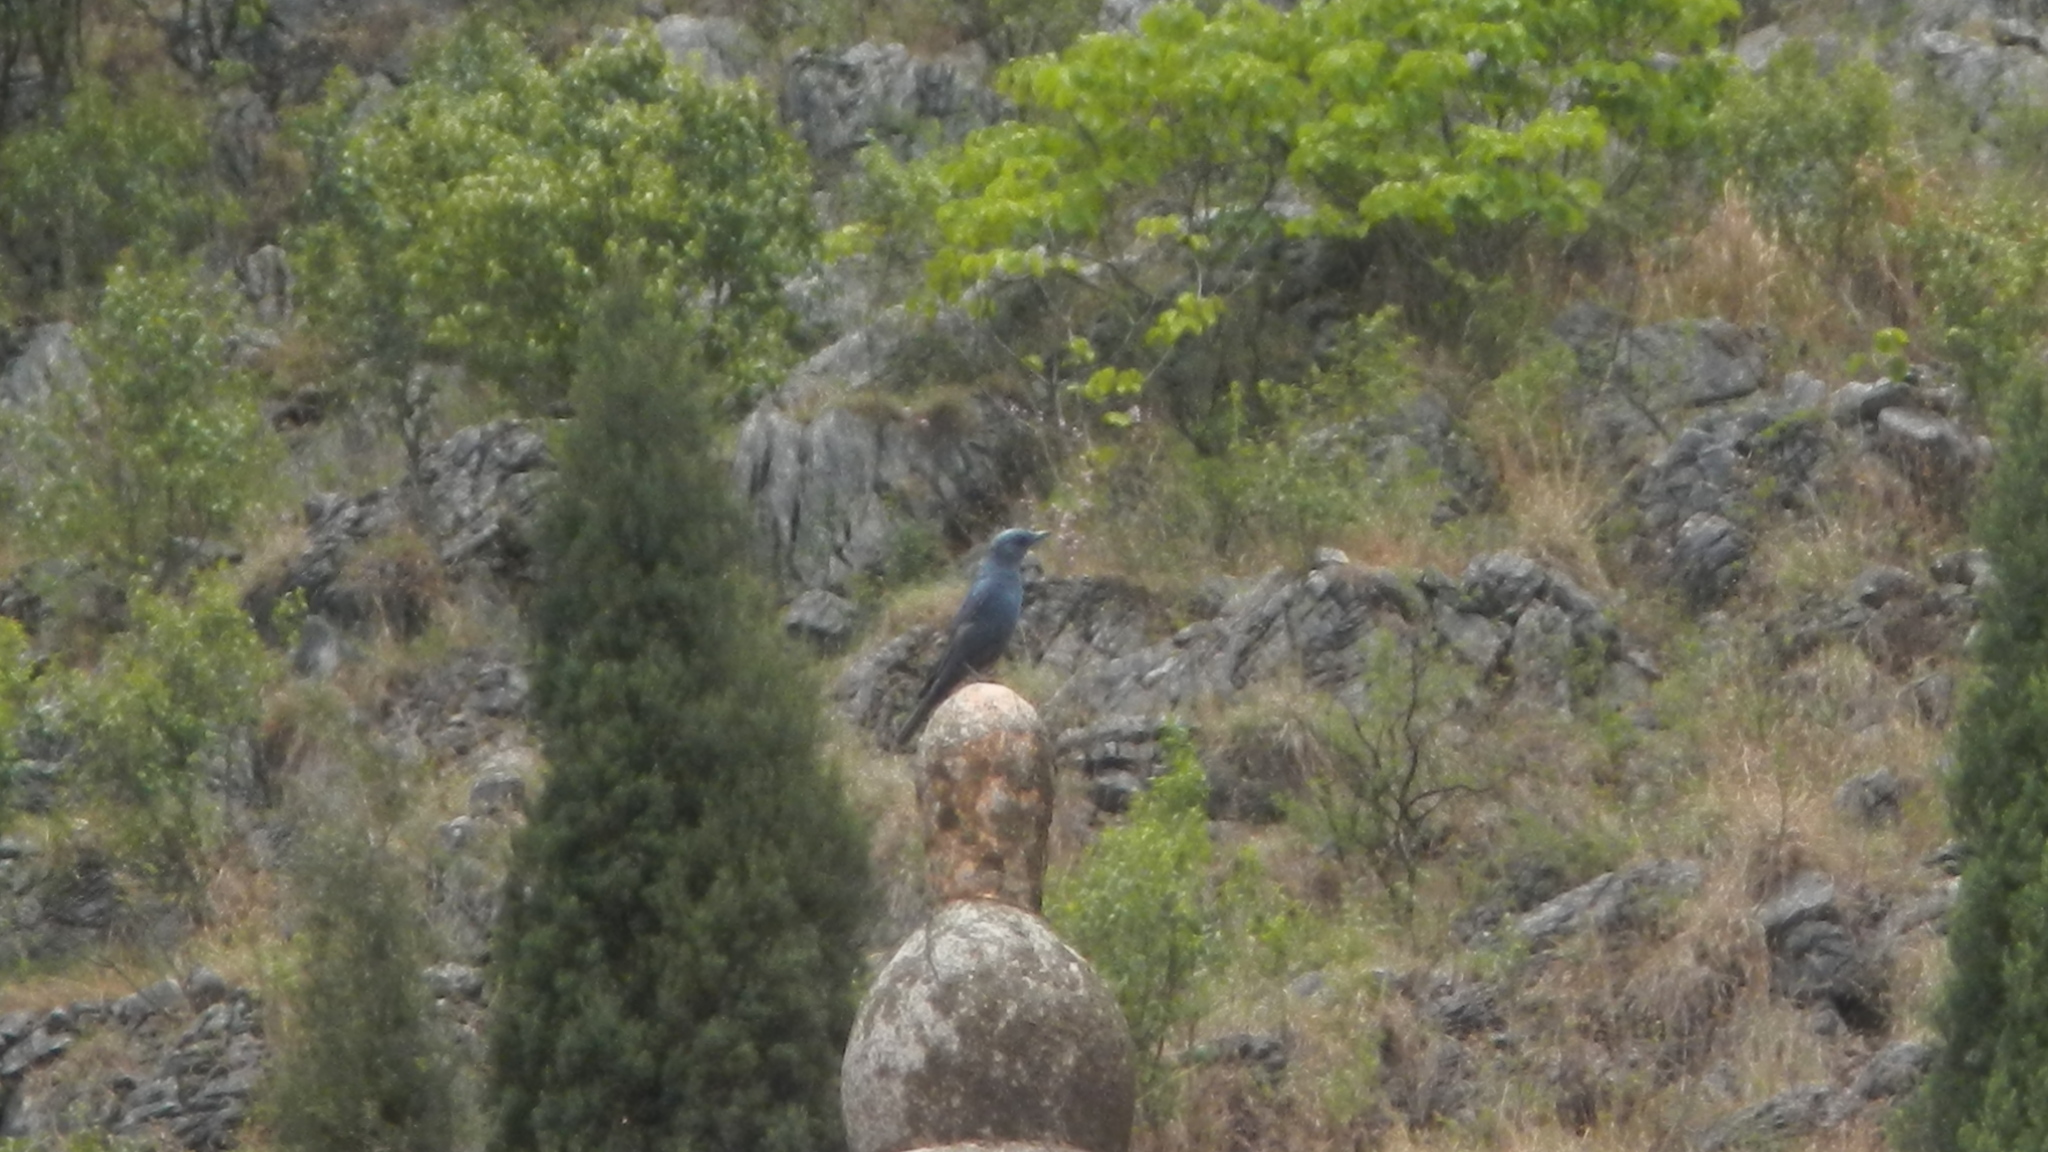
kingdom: Animalia
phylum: Chordata
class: Aves
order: Passeriformes
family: Muscicapidae
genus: Monticola
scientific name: Monticola solitarius
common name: Blue rock thrush
